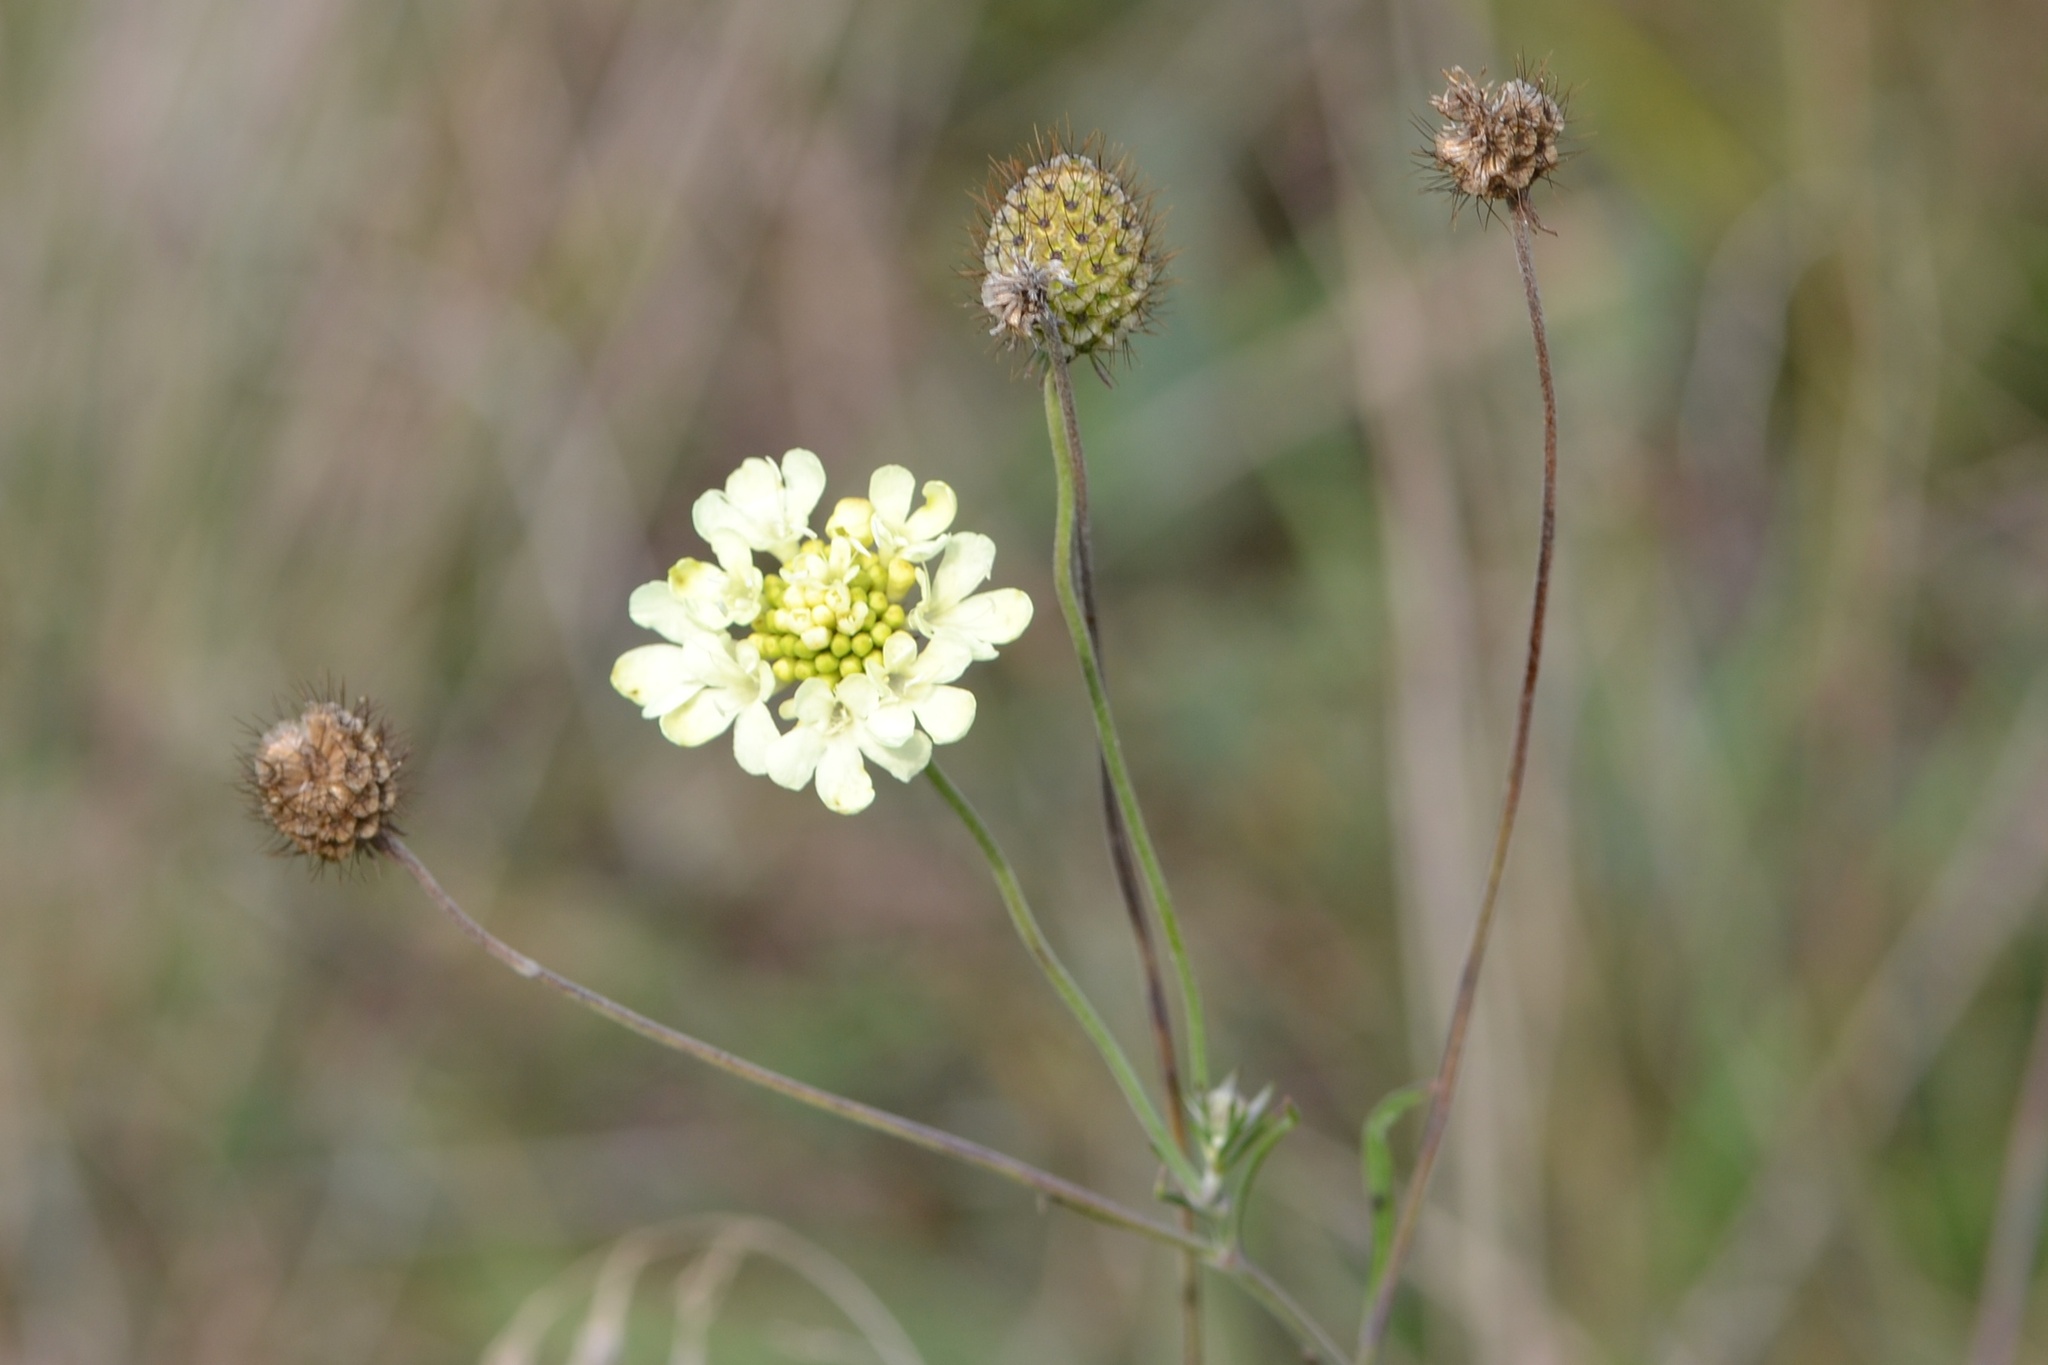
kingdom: Plantae
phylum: Tracheophyta
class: Magnoliopsida
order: Dipsacales
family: Caprifoliaceae
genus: Scabiosa
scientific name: Scabiosa ochroleuca
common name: Cream pincushions
